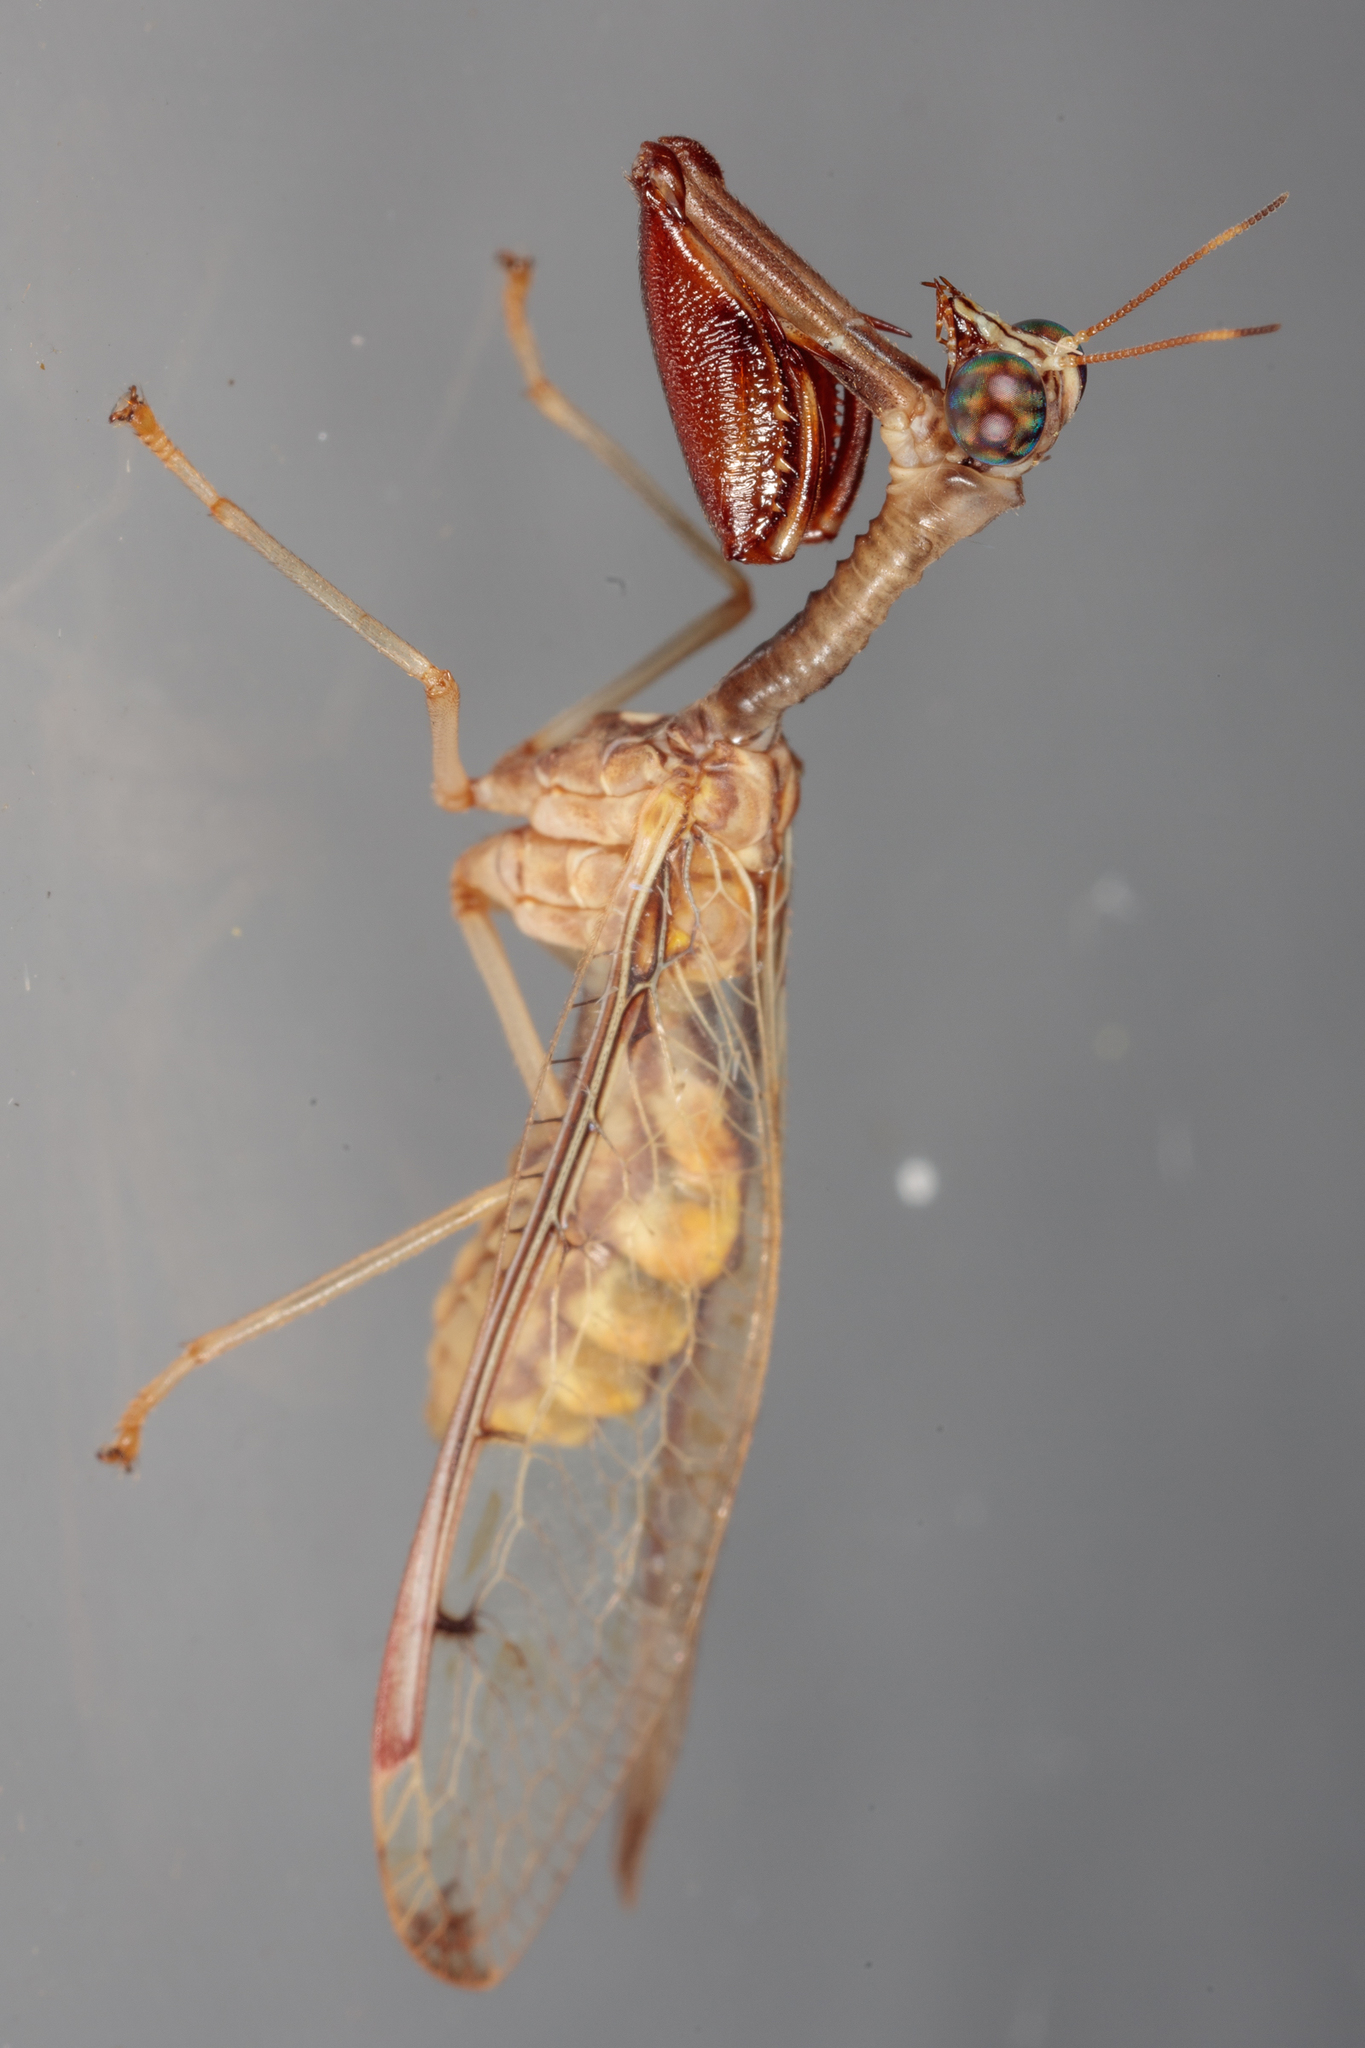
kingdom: Animalia
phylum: Arthropoda
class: Insecta
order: Neuroptera
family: Mantispidae
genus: Dicromantispa
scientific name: Dicromantispa interrupta
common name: Four-spotted mantidfly
